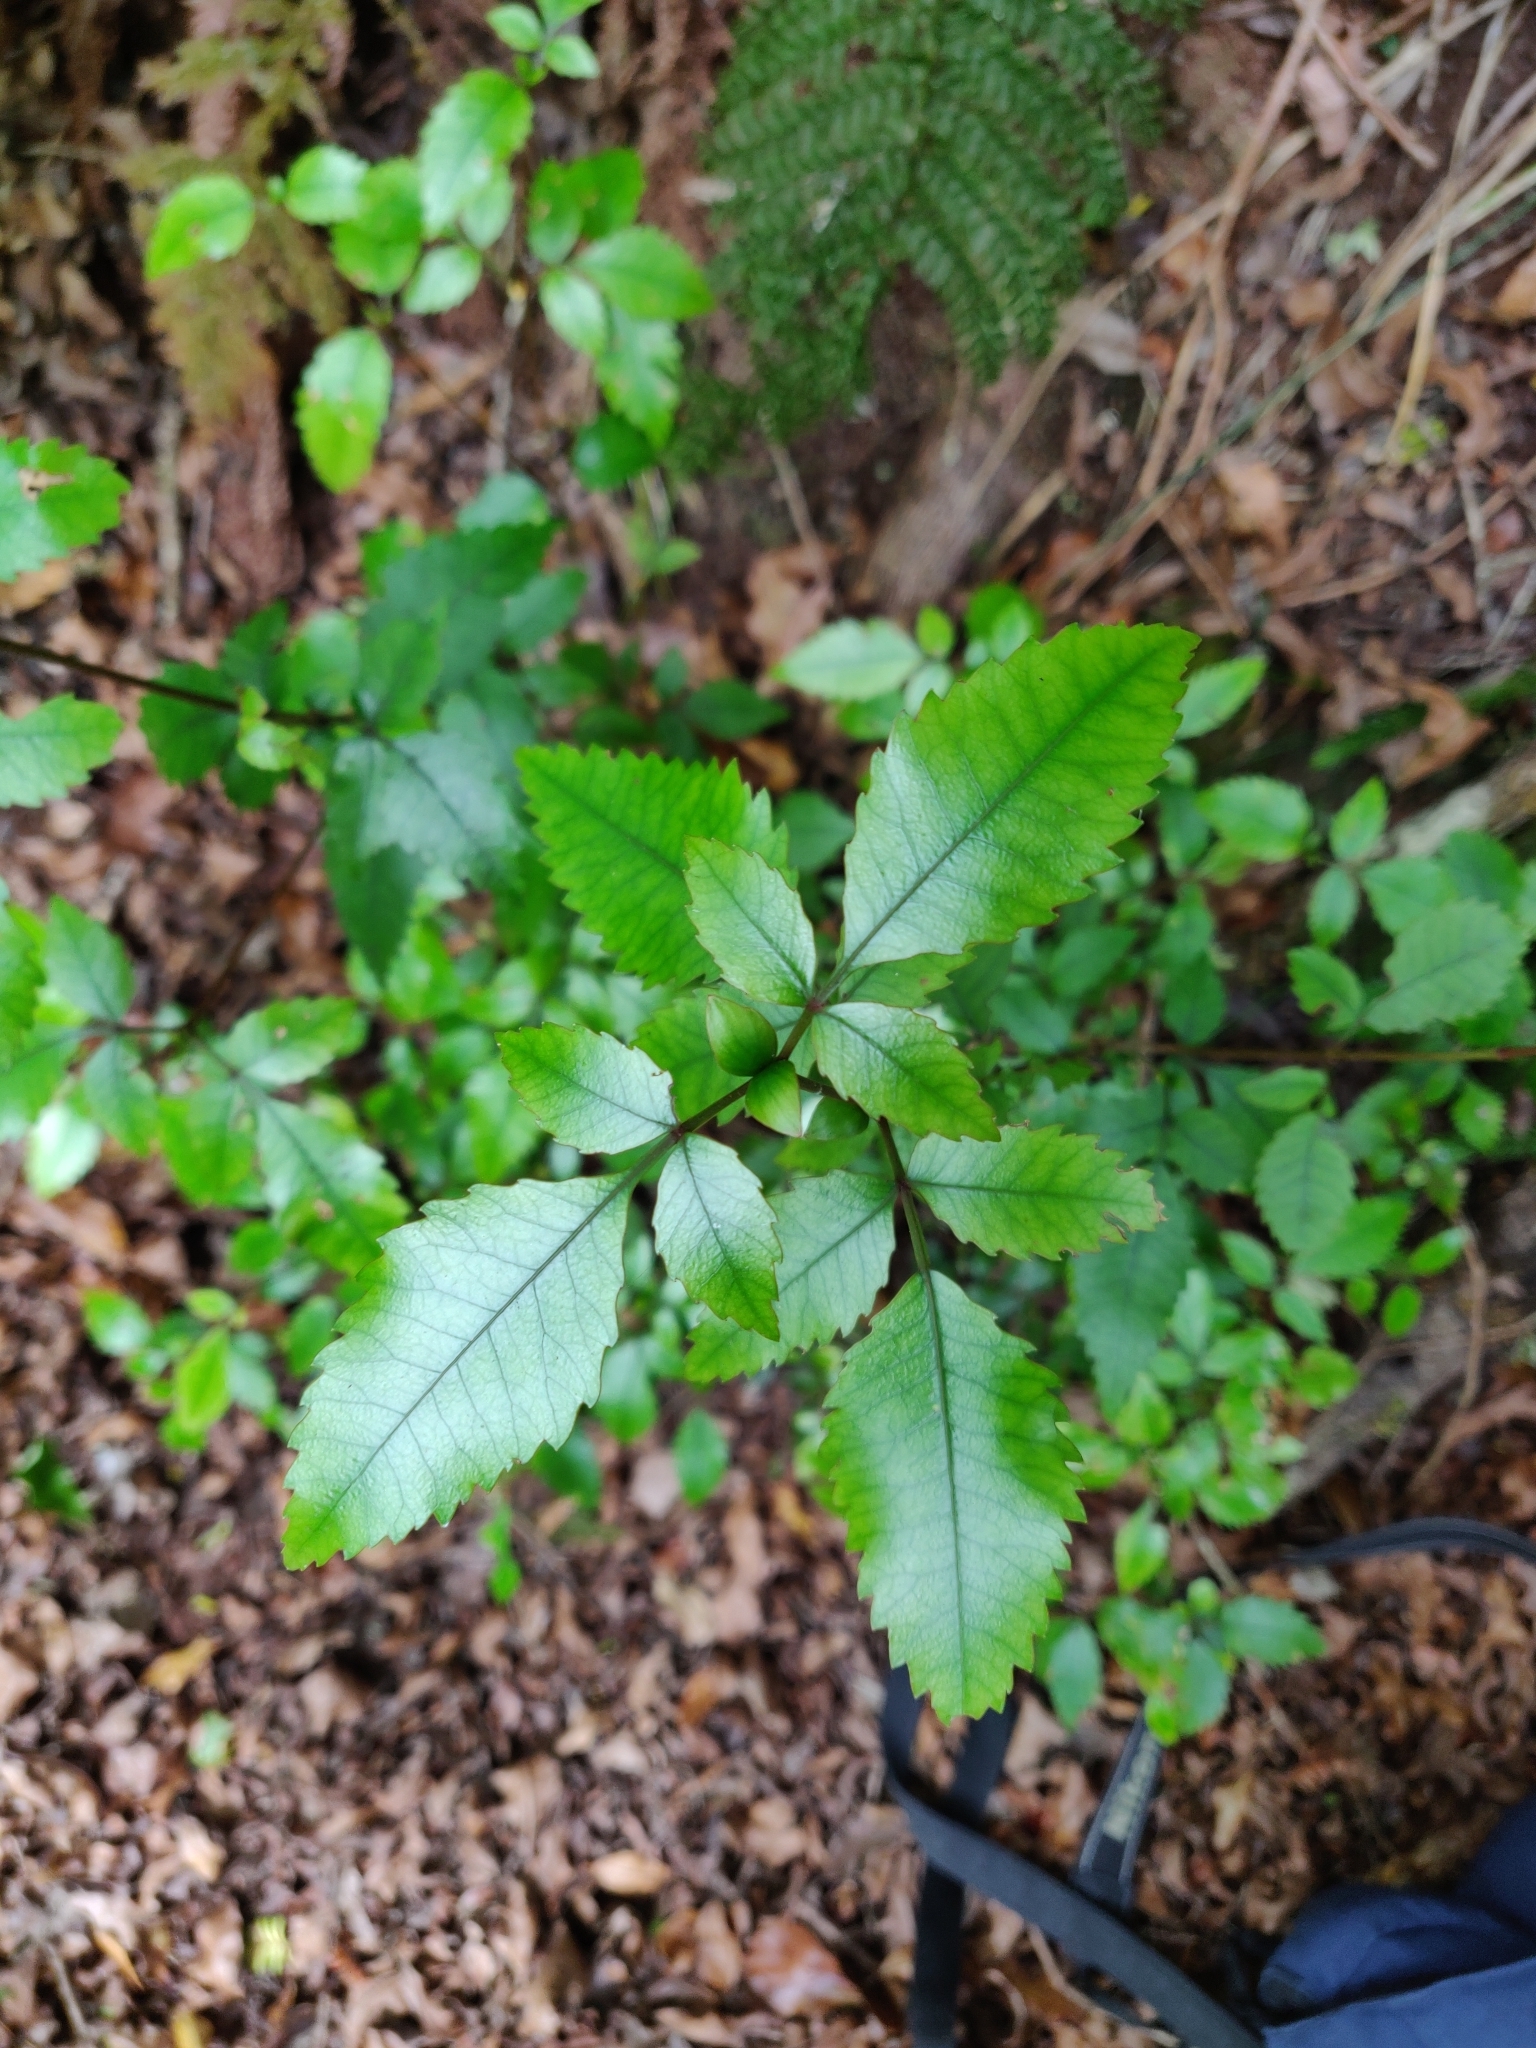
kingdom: Plantae
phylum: Tracheophyta
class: Magnoliopsida
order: Oxalidales
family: Cunoniaceae
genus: Pterophylla
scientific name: Pterophylla racemosa
